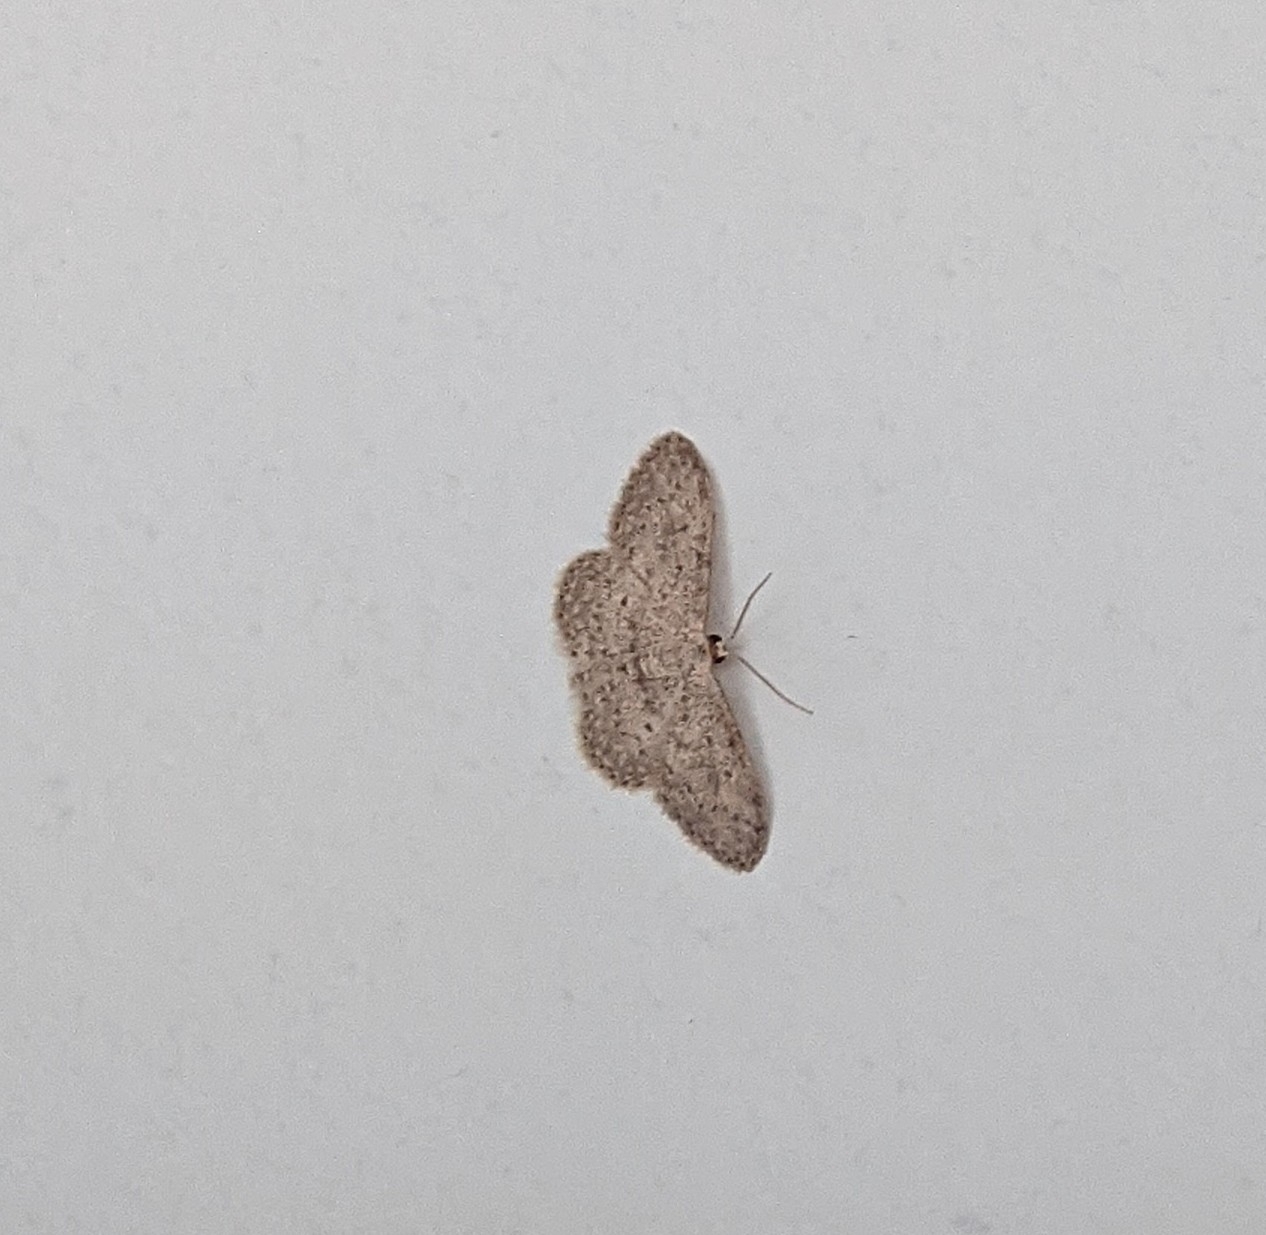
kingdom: Animalia
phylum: Arthropoda
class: Insecta
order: Lepidoptera
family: Geometridae
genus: Idaea
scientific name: Idaea seriata
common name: Small dusty wave
